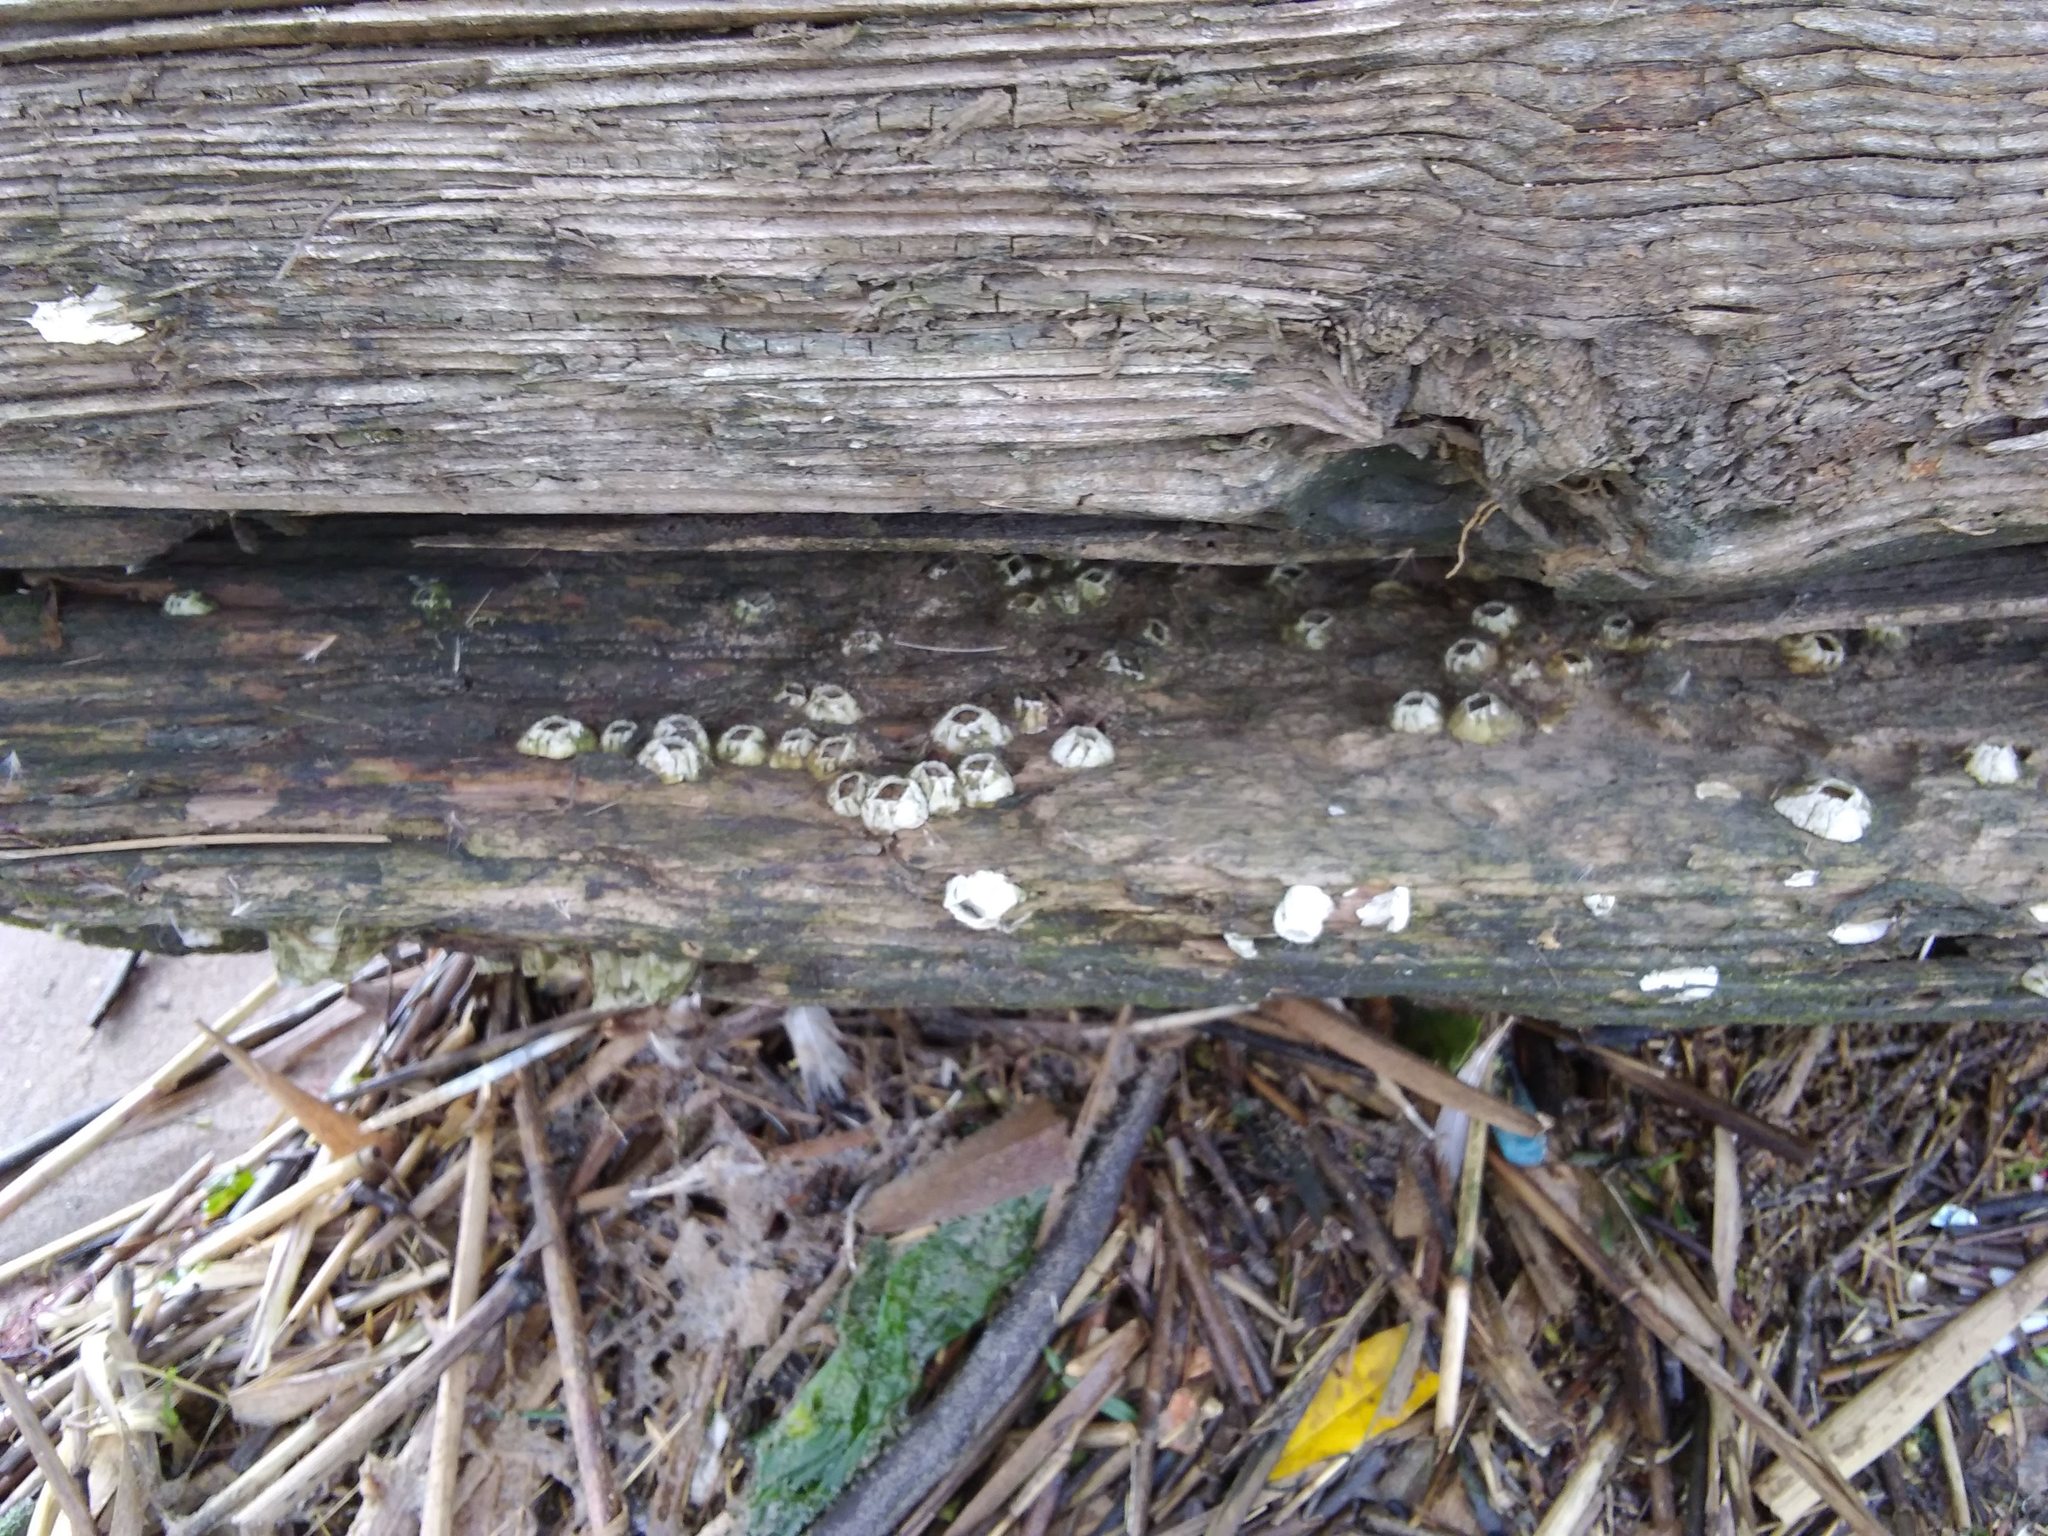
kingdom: Animalia
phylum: Arthropoda
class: Maxillopoda
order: Sessilia
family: Balanidae
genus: Amphibalanus
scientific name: Amphibalanus improvisus
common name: Bay barnacle
